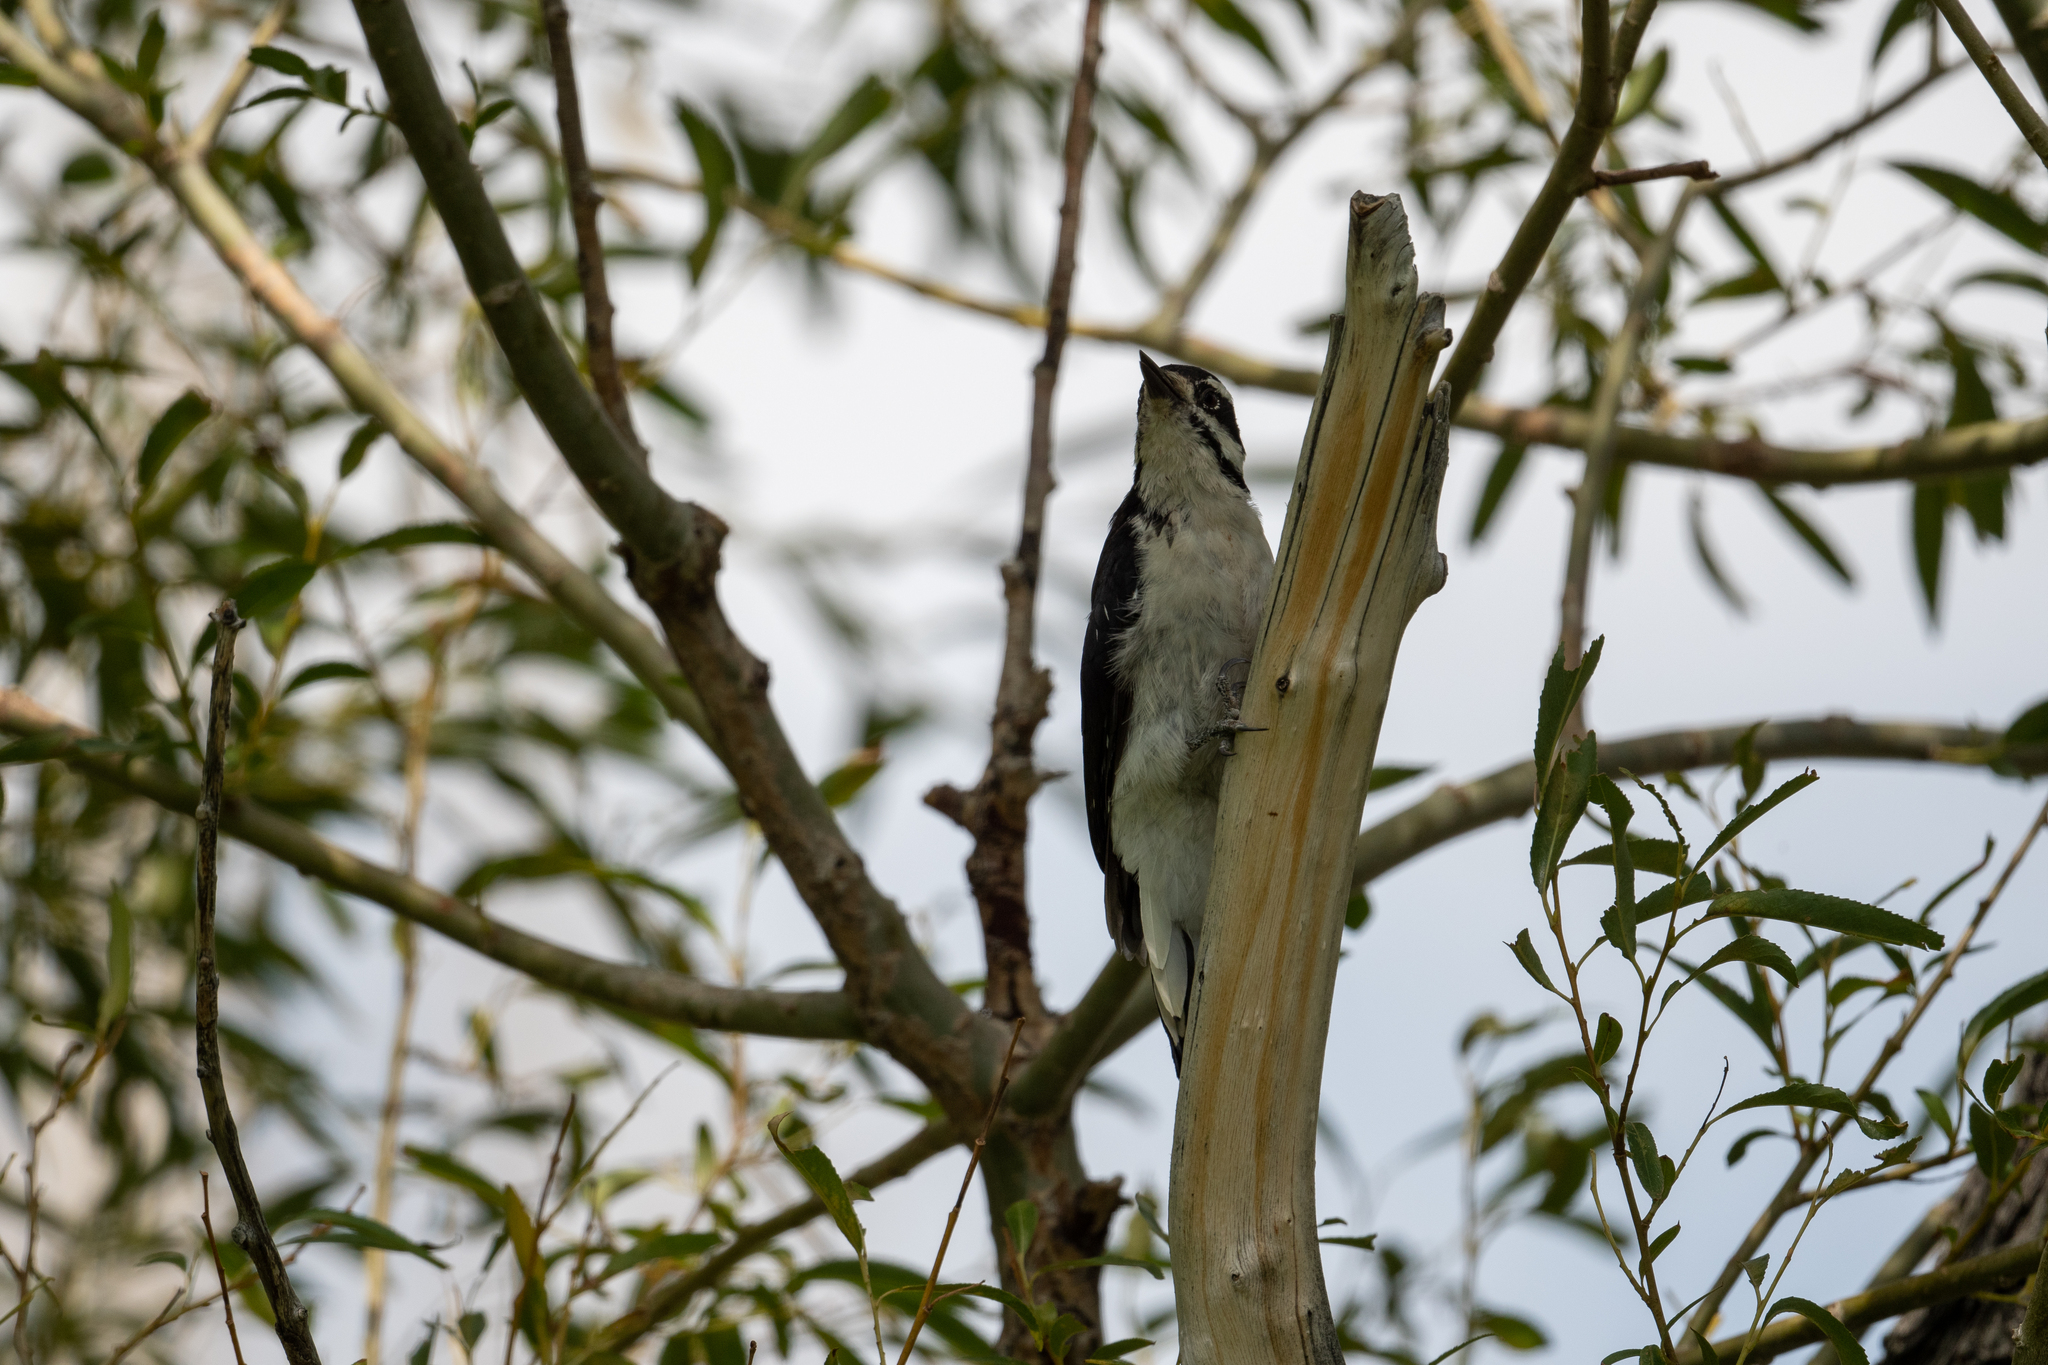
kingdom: Animalia
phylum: Chordata
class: Aves
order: Piciformes
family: Picidae
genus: Leuconotopicus
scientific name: Leuconotopicus villosus
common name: Hairy woodpecker
